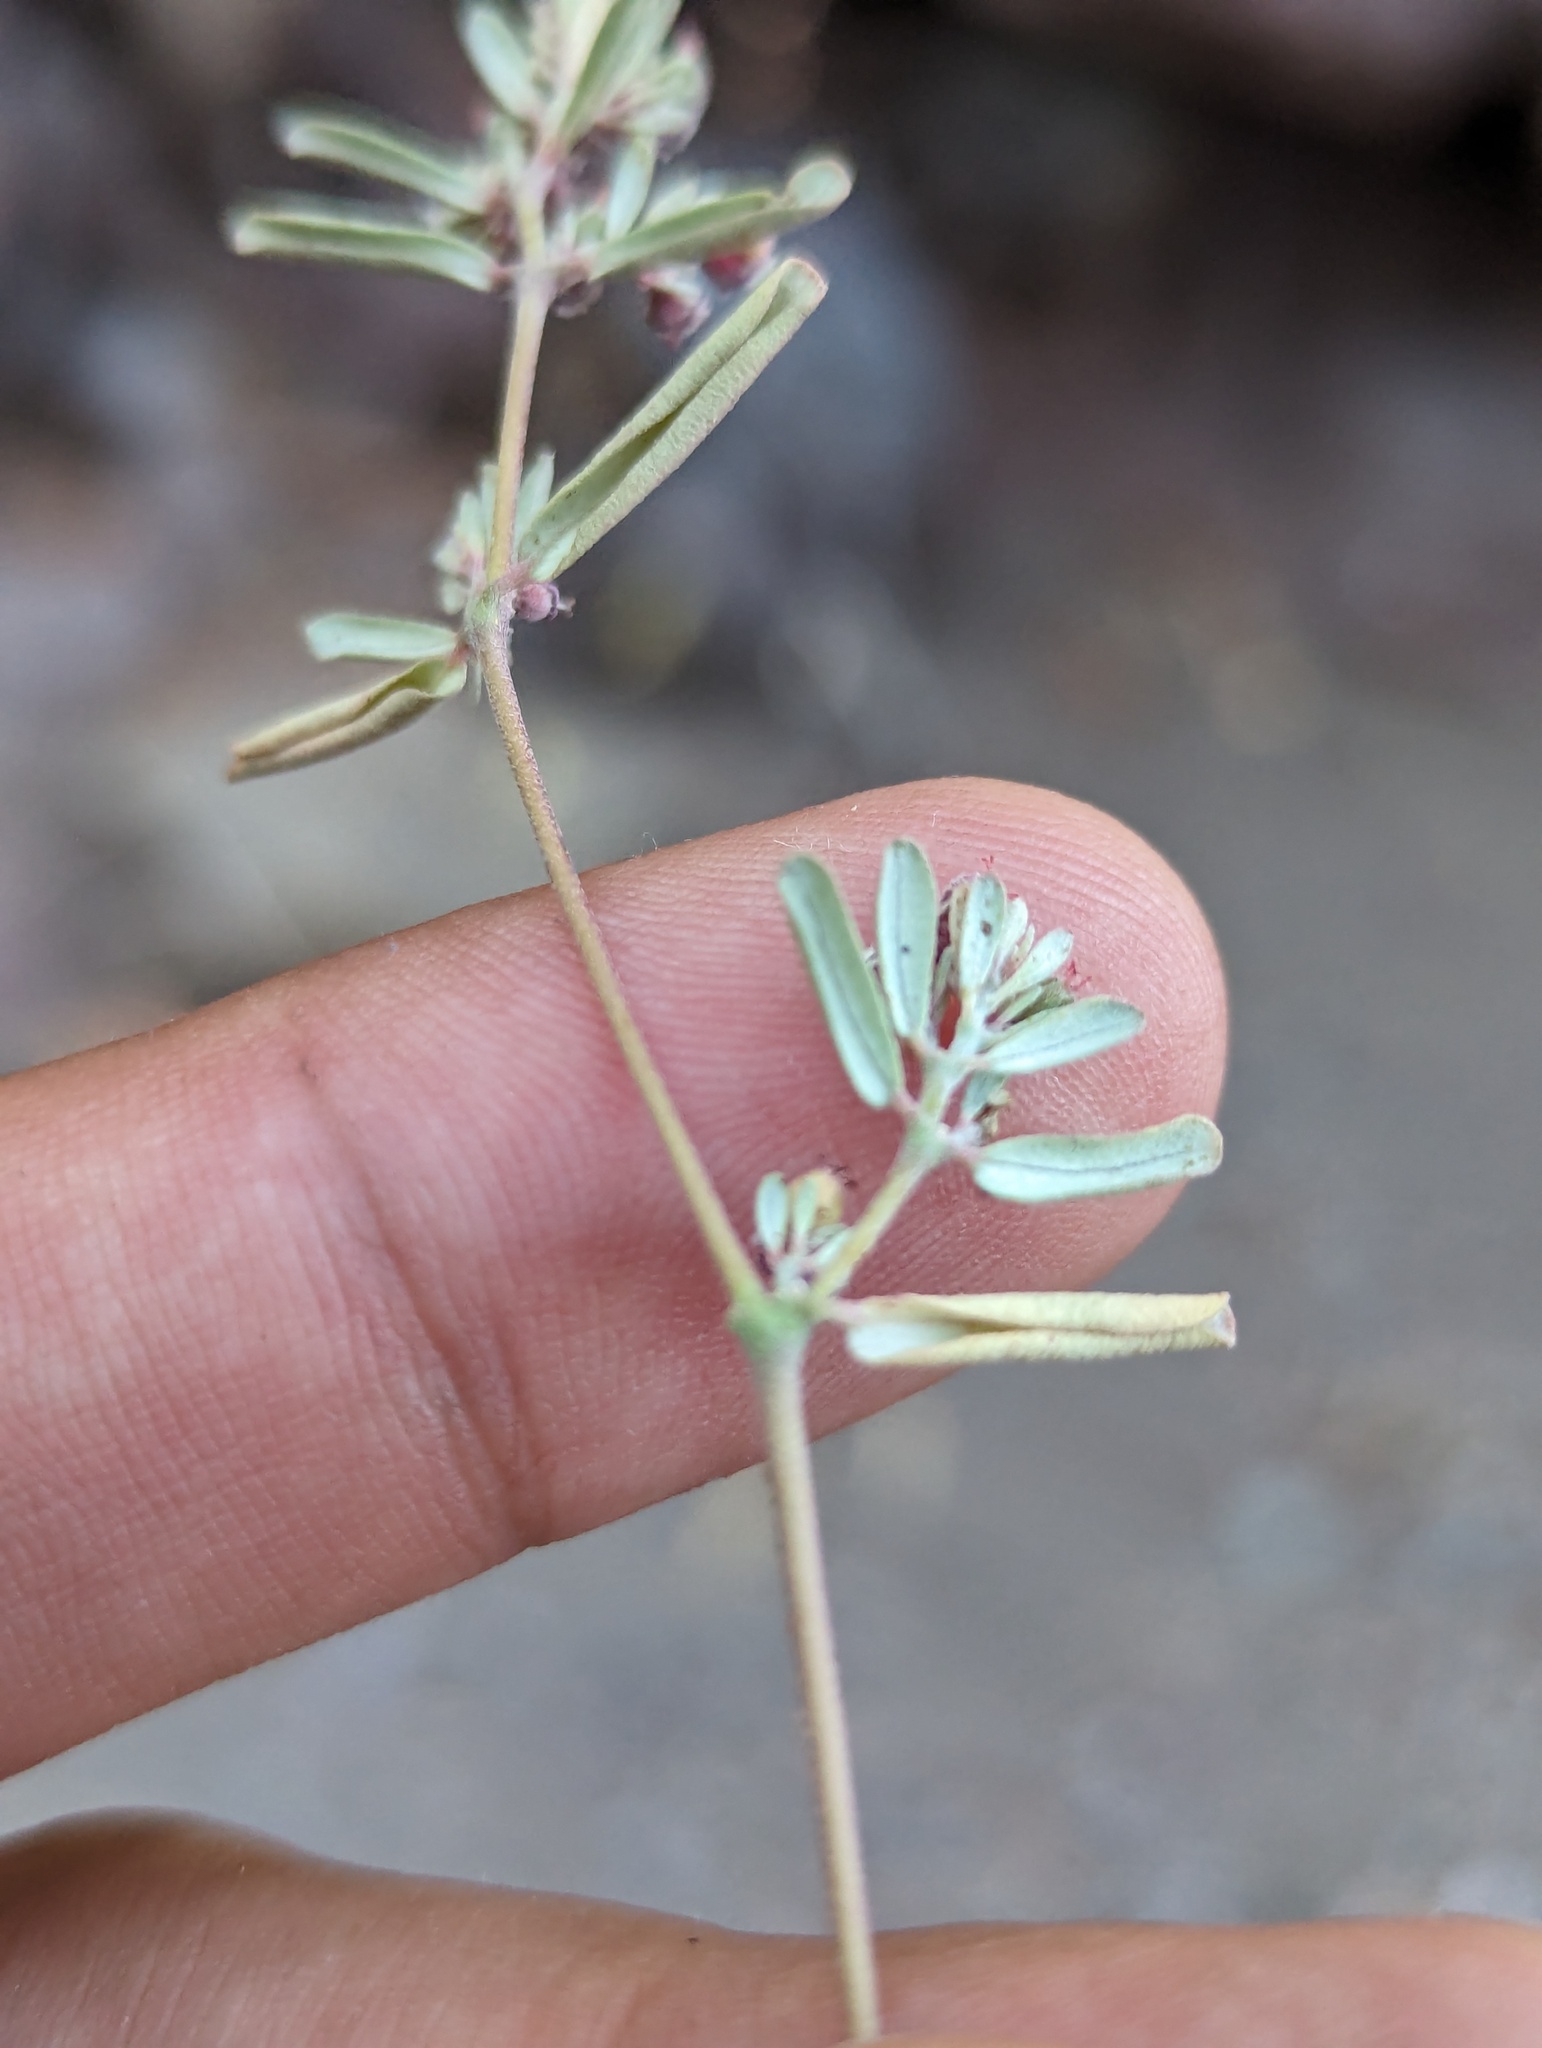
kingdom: Plantae
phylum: Tracheophyta
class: Magnoliopsida
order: Malpighiales
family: Euphorbiaceae
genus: Euphorbia
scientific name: Euphorbia pediculifera
